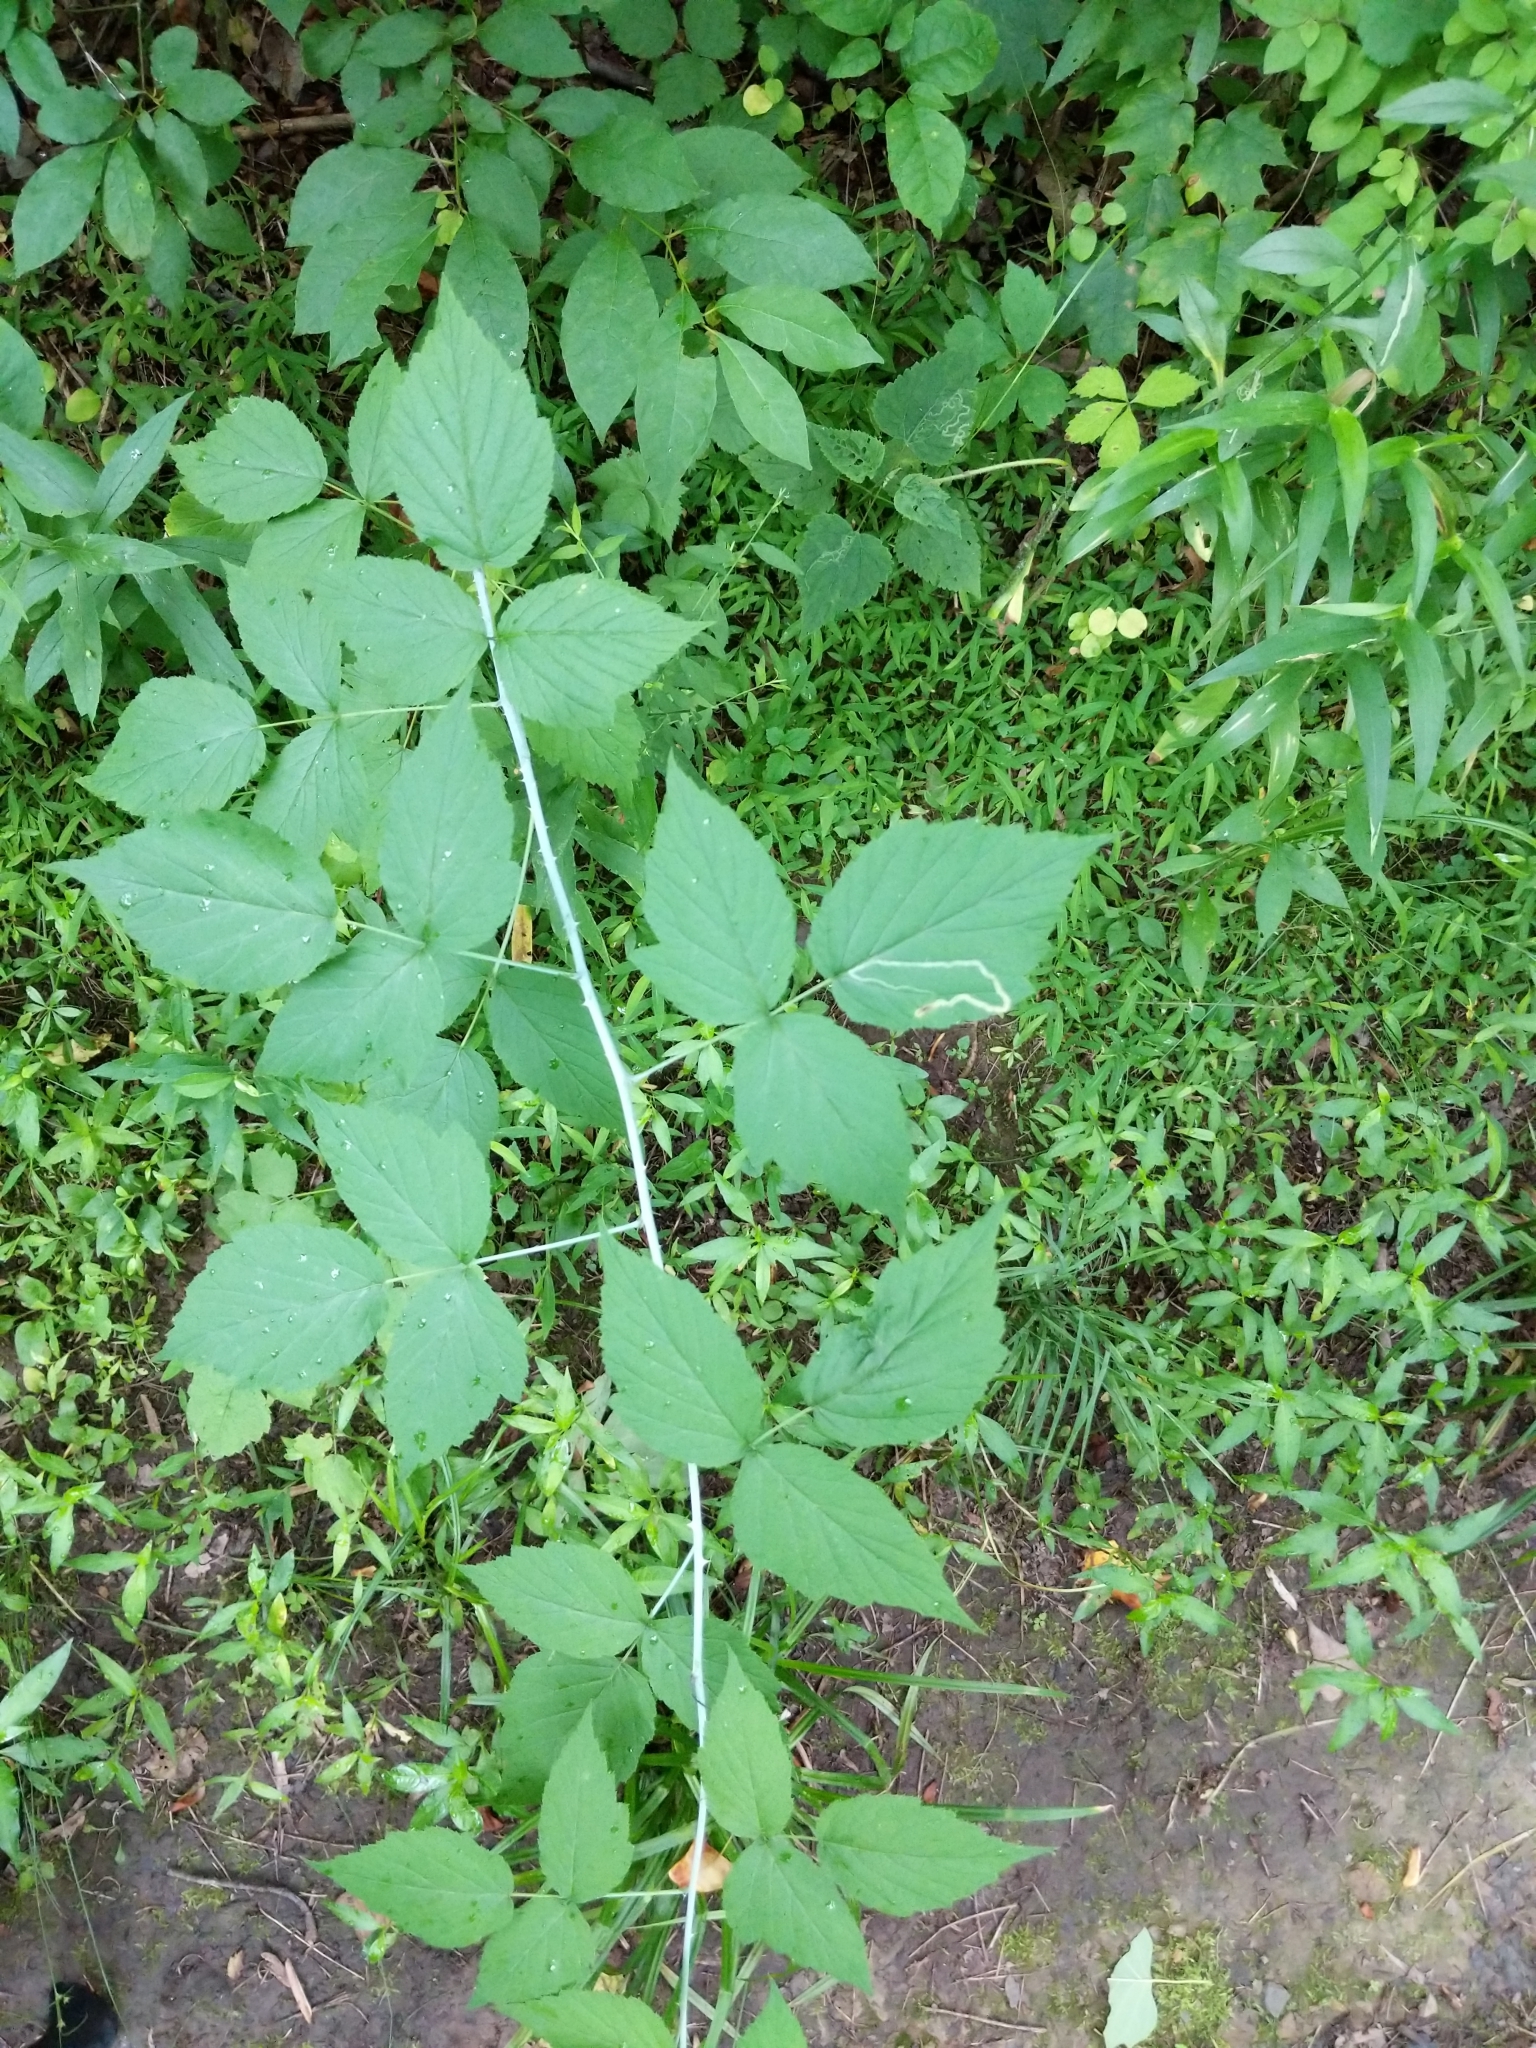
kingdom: Plantae
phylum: Tracheophyta
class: Magnoliopsida
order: Rosales
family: Rosaceae
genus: Rubus
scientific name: Rubus occidentalis
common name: Black raspberry
